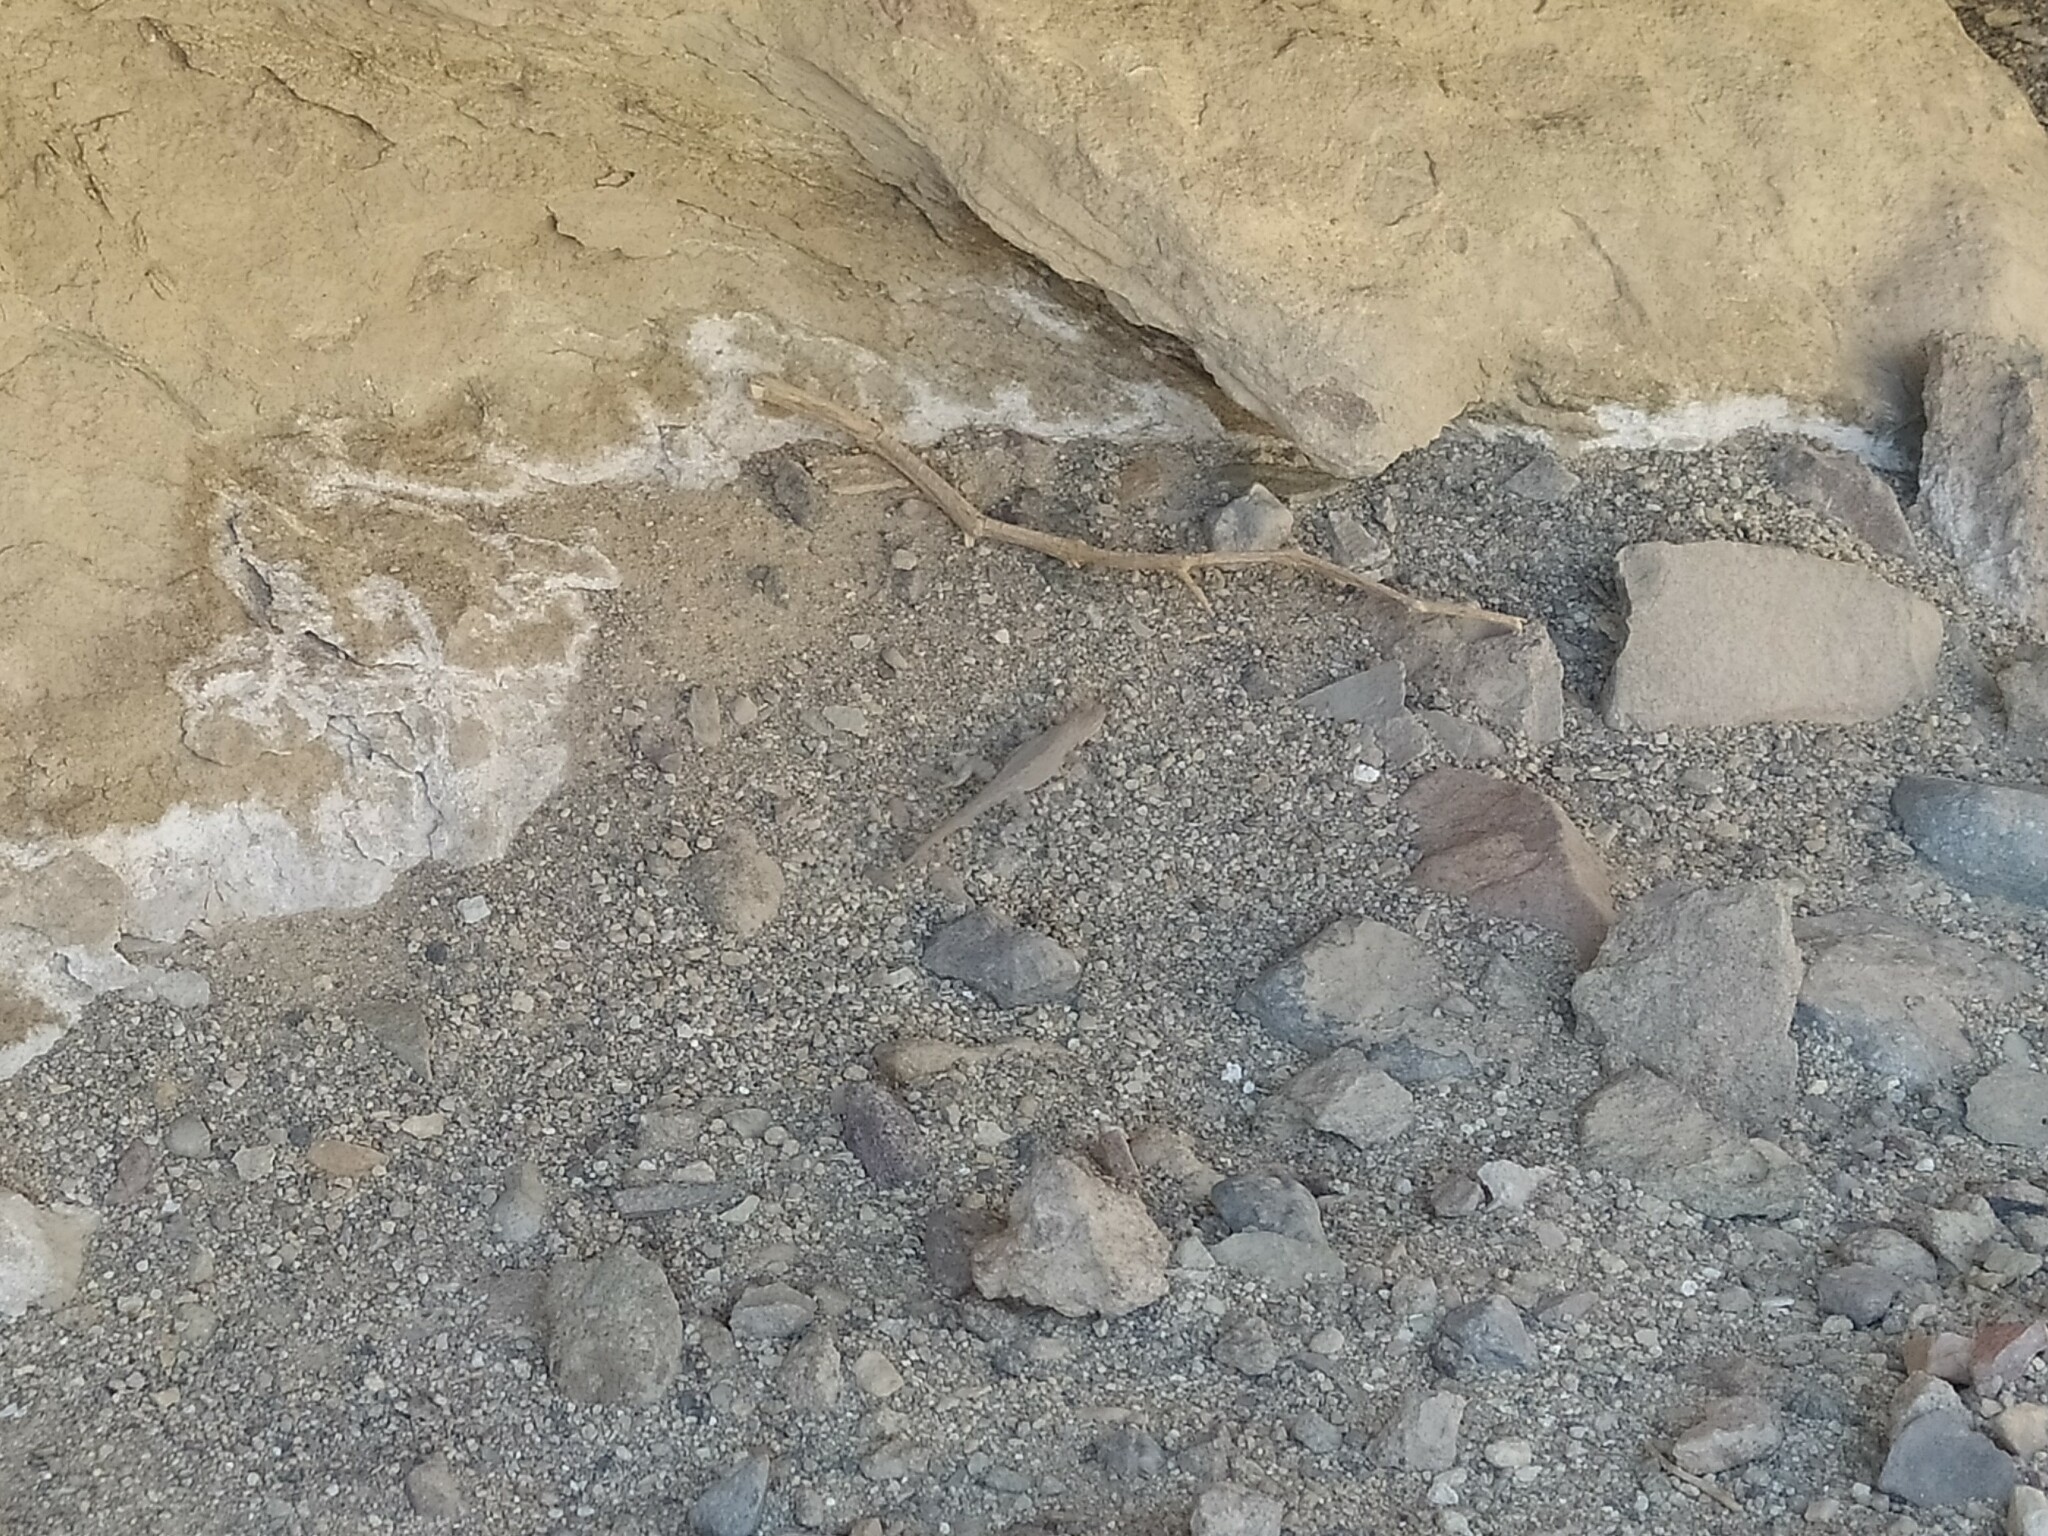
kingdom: Animalia
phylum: Chordata
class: Squamata
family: Phrynosomatidae
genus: Uta
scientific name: Uta stansburiana
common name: Side-blotched lizard
